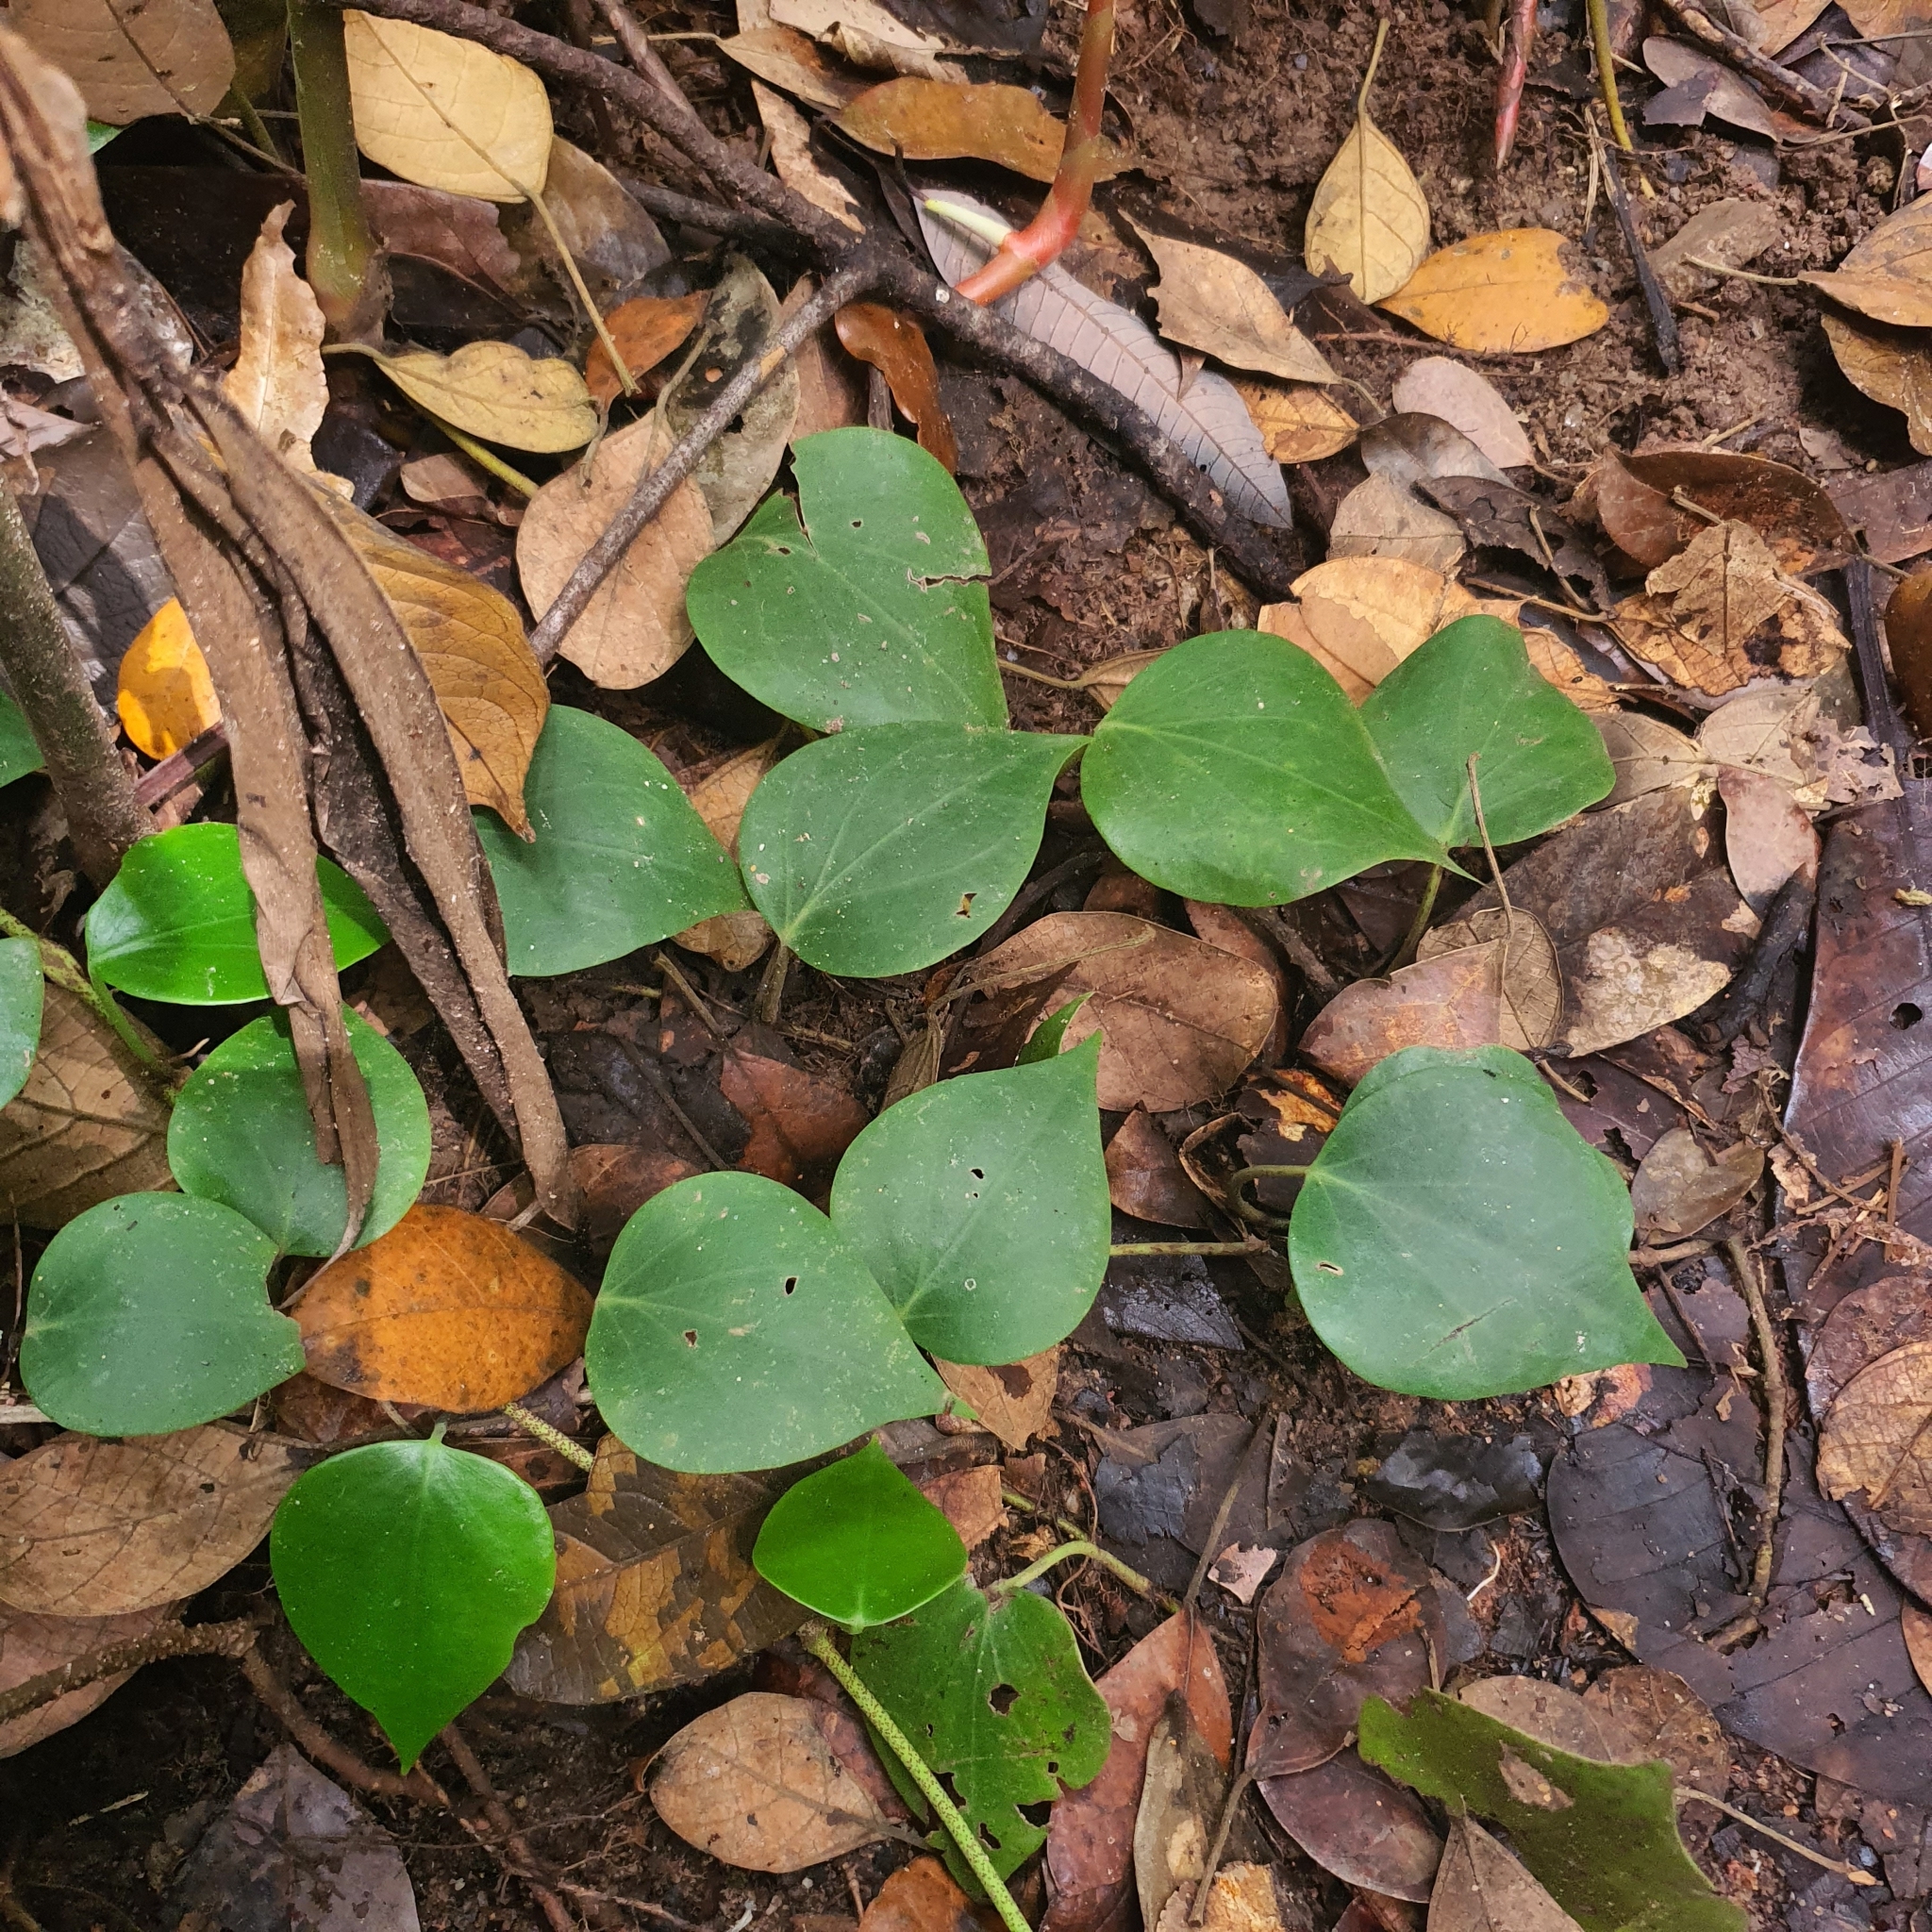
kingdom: Plantae
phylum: Tracheophyta
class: Magnoliopsida
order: Piperales
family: Piperaceae
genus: Piper
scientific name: Piper baccatum
